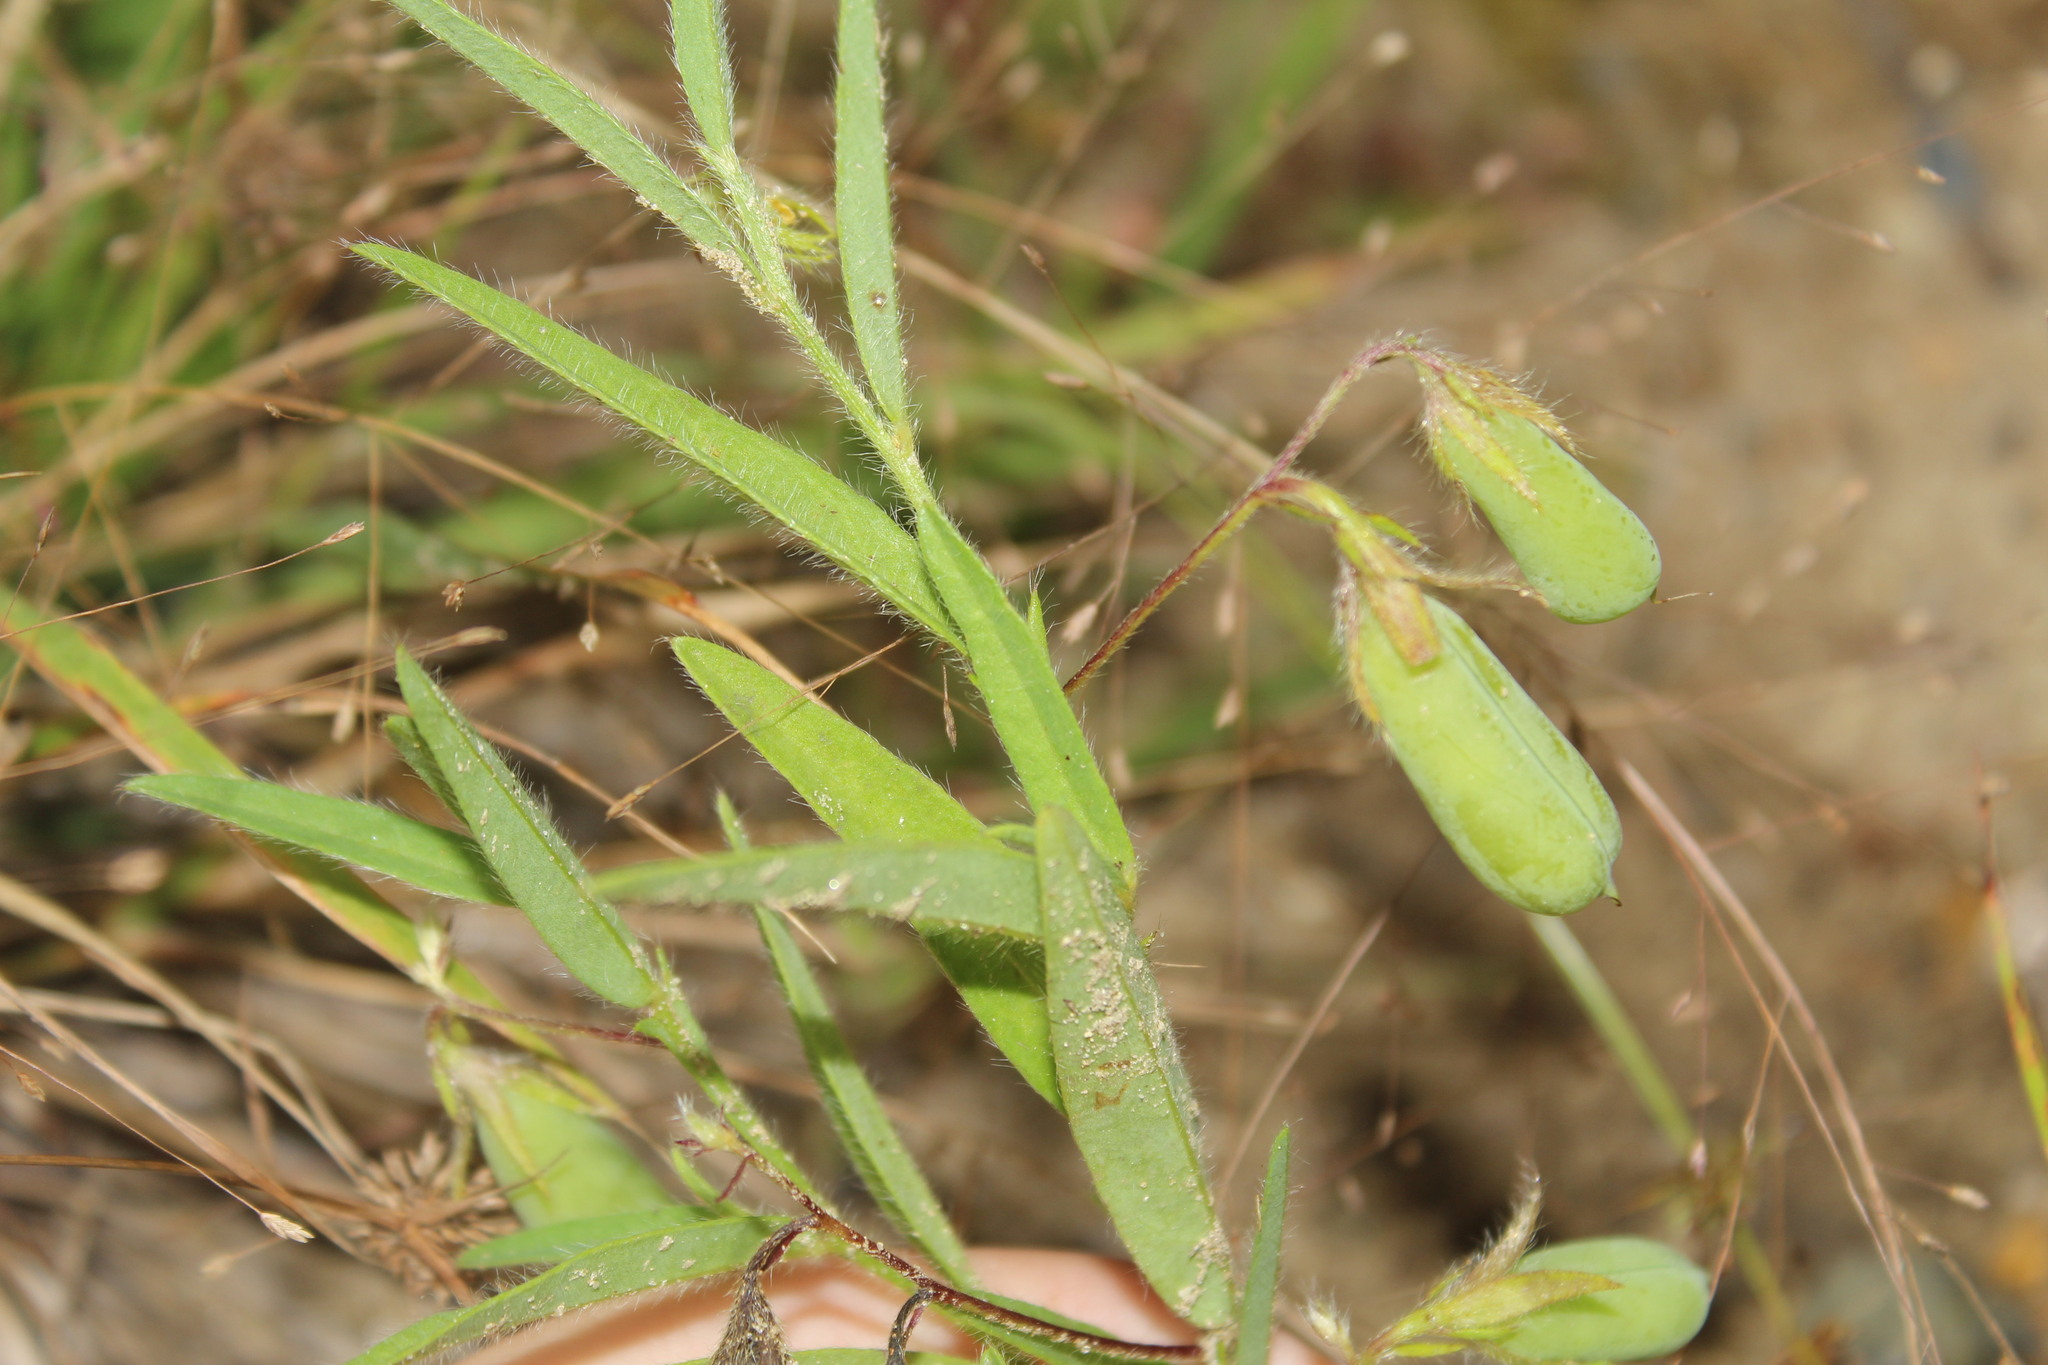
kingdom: Plantae
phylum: Tracheophyta
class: Magnoliopsida
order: Fabales
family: Fabaceae
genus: Crotalaria
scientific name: Crotalaria sagittalis
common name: Arrowhead rattlebox
